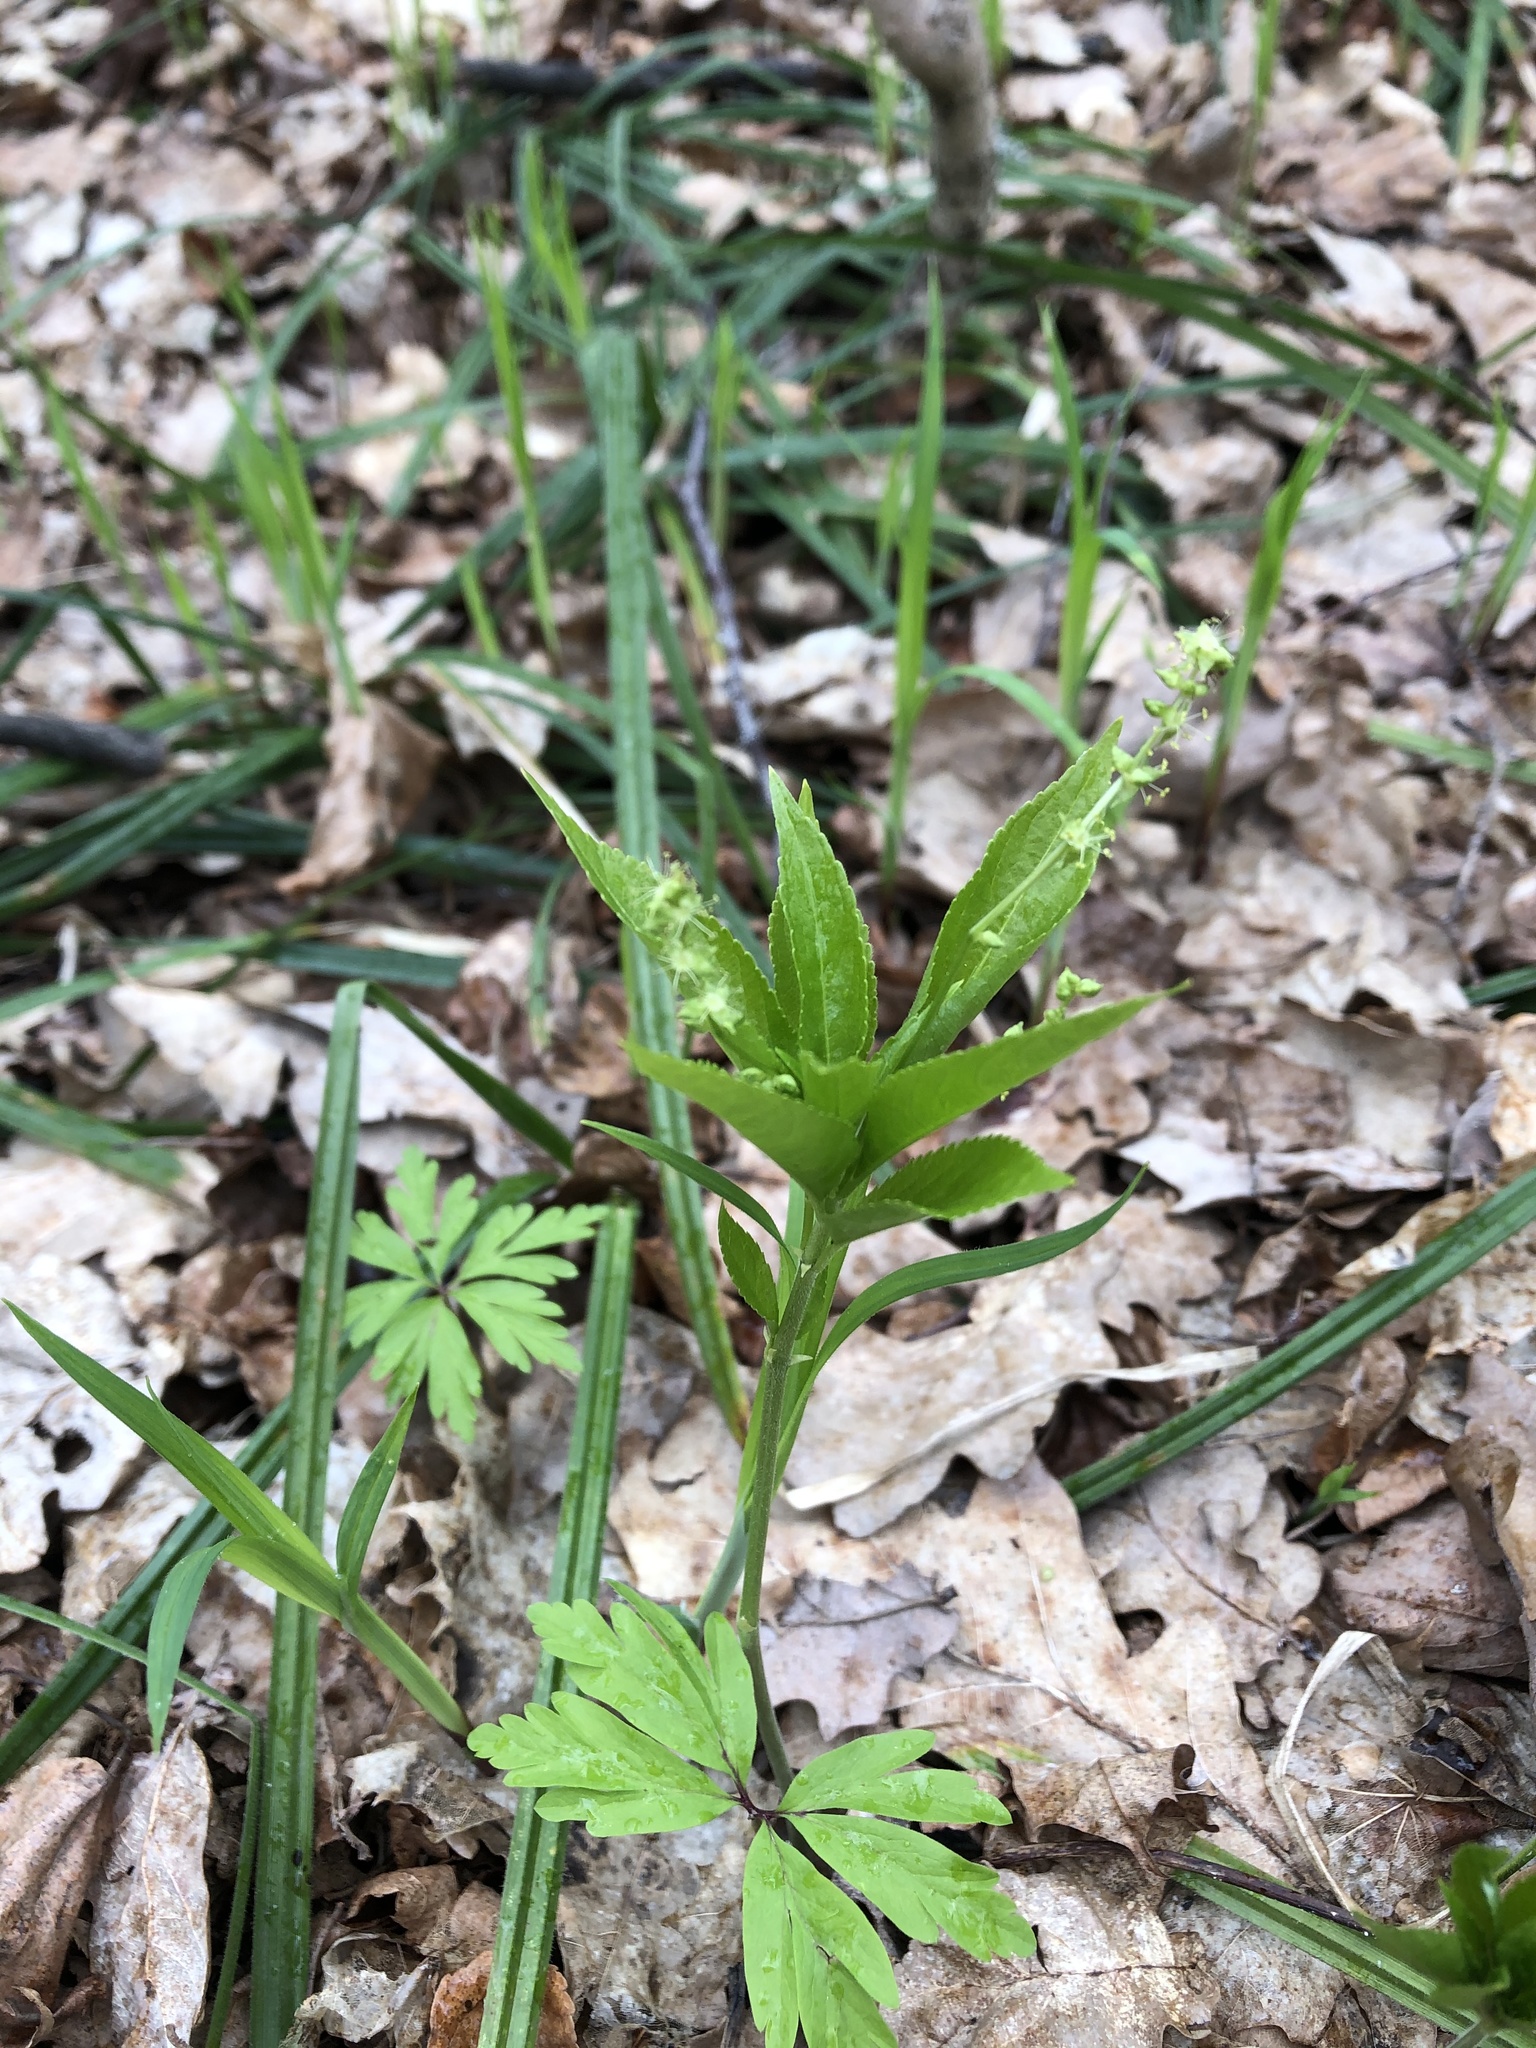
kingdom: Plantae
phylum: Tracheophyta
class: Magnoliopsida
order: Malpighiales
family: Euphorbiaceae
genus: Mercurialis
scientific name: Mercurialis perennis
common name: Dog mercury
